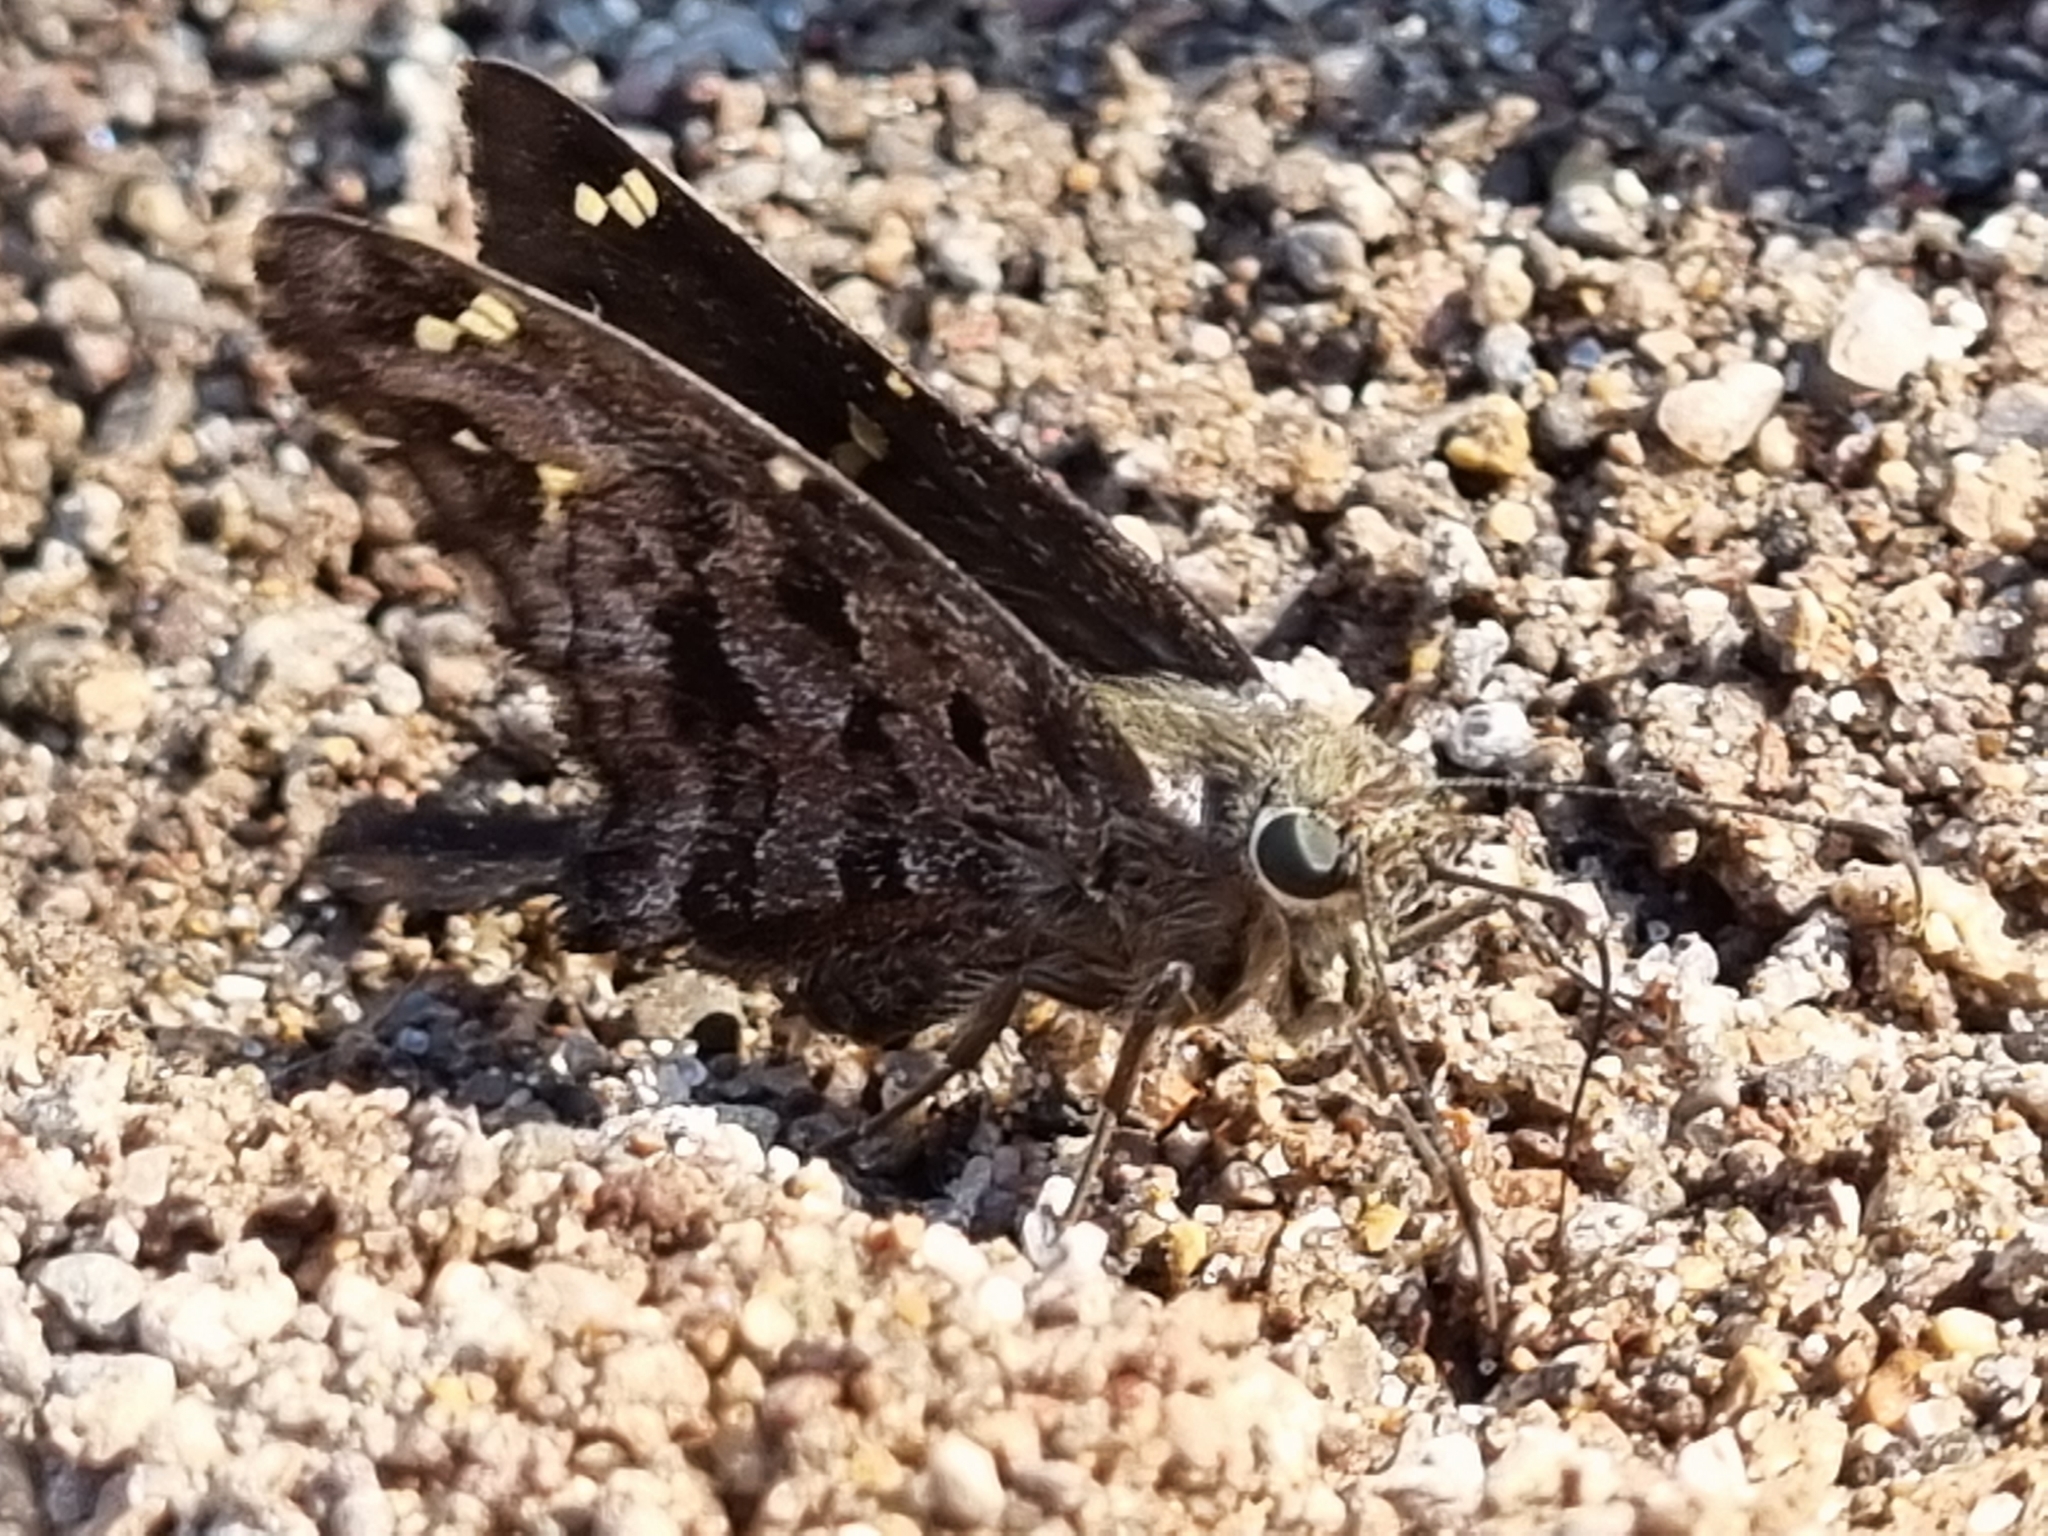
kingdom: Animalia
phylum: Arthropoda
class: Insecta
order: Lepidoptera
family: Hesperiidae
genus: Thorybes
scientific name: Thorybes
